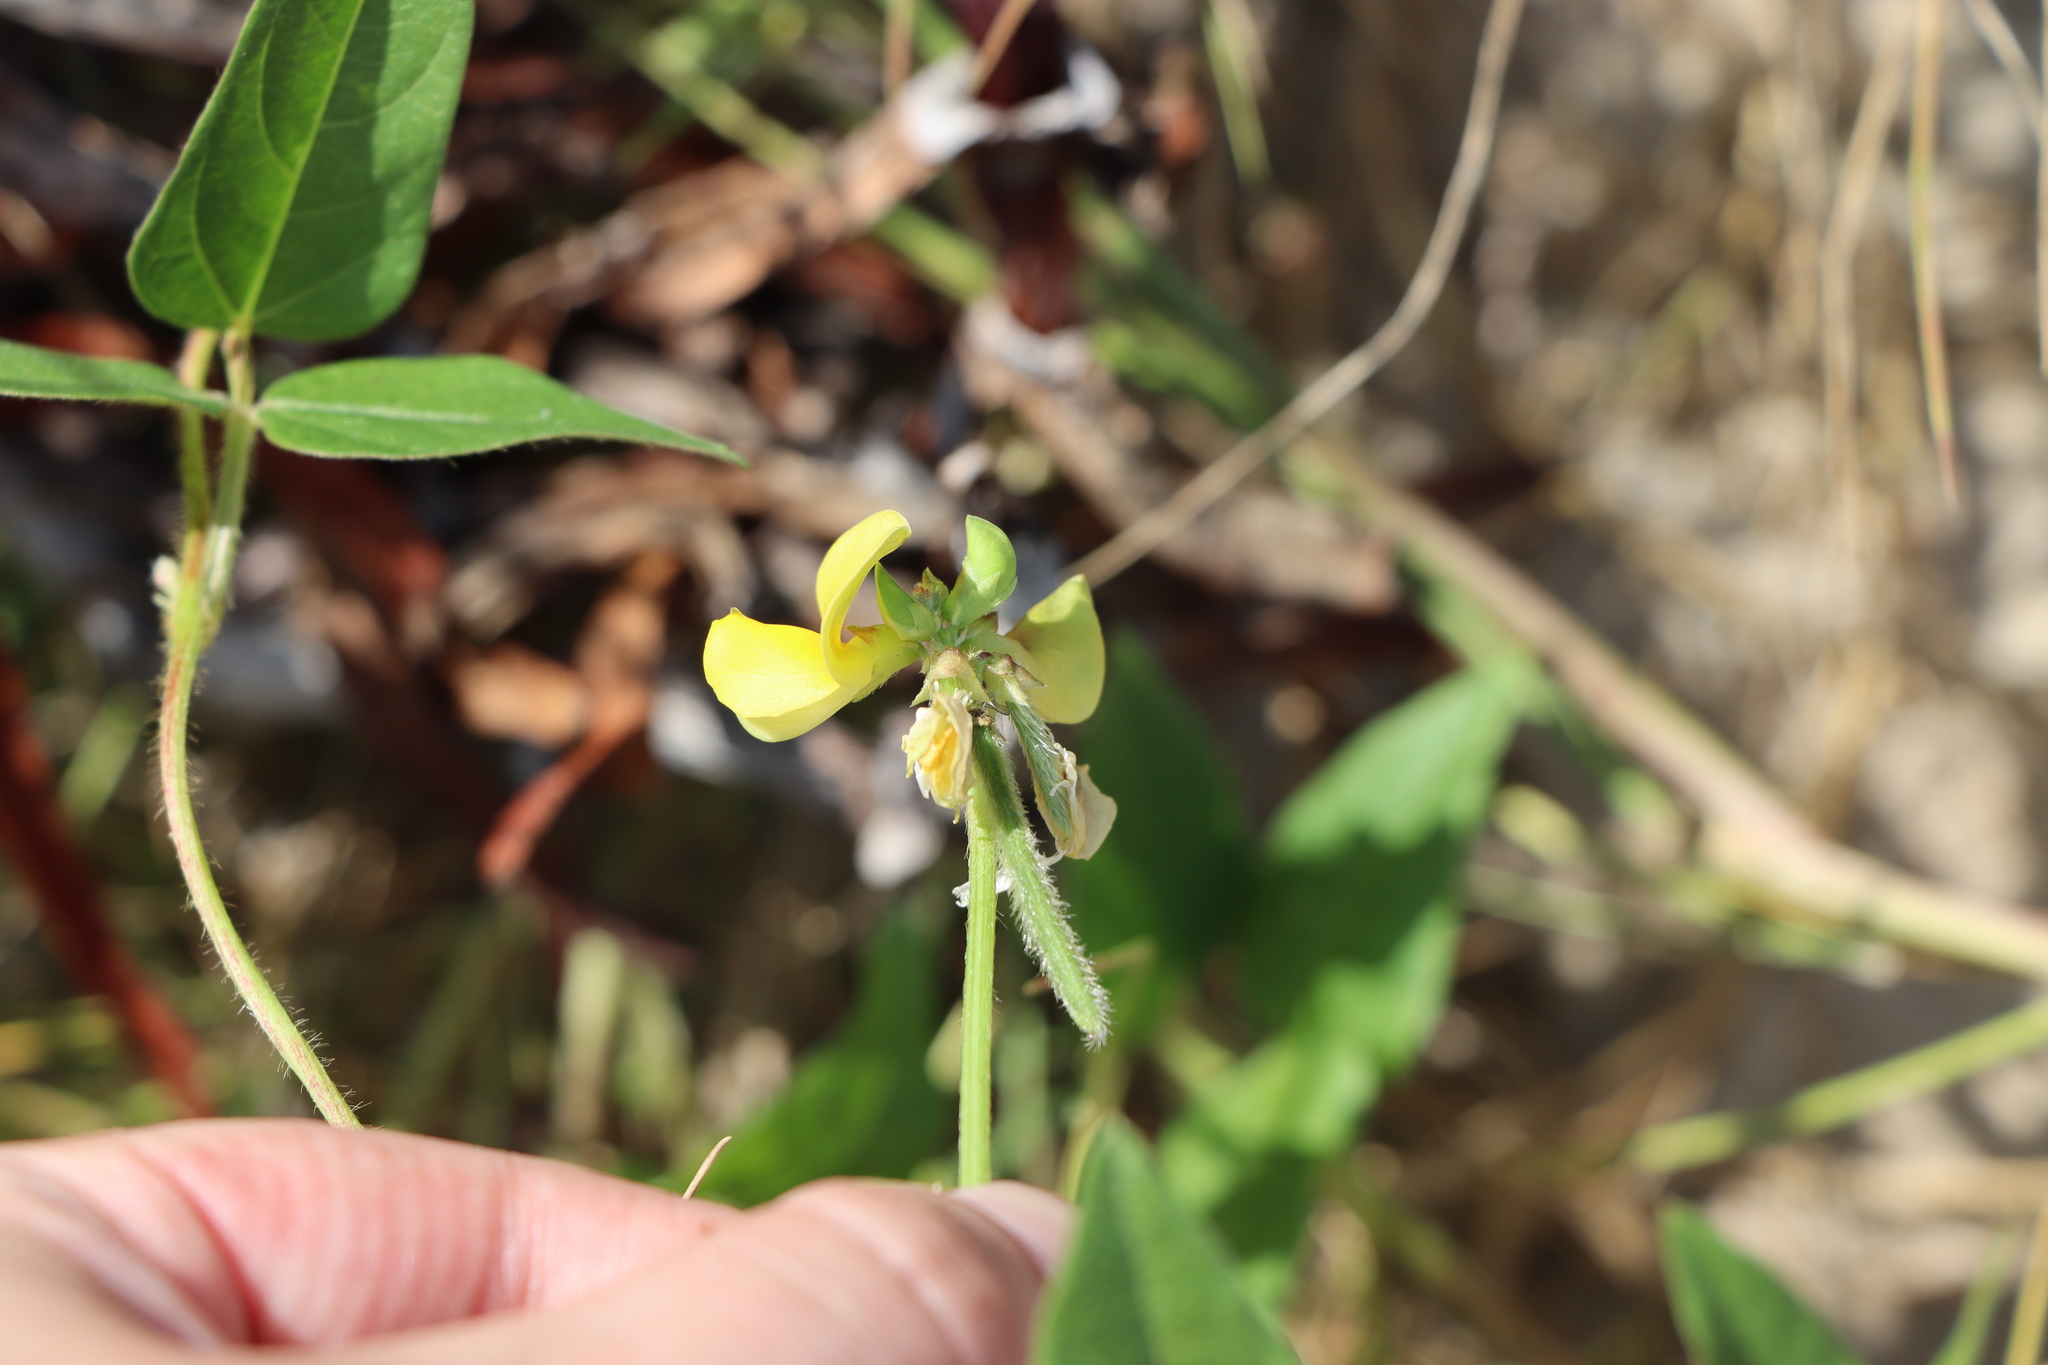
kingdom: Plantae
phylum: Tracheophyta
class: Magnoliopsida
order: Fabales
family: Fabaceae
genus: Vigna
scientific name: Vigna luteola
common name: Hairypod cowpea
